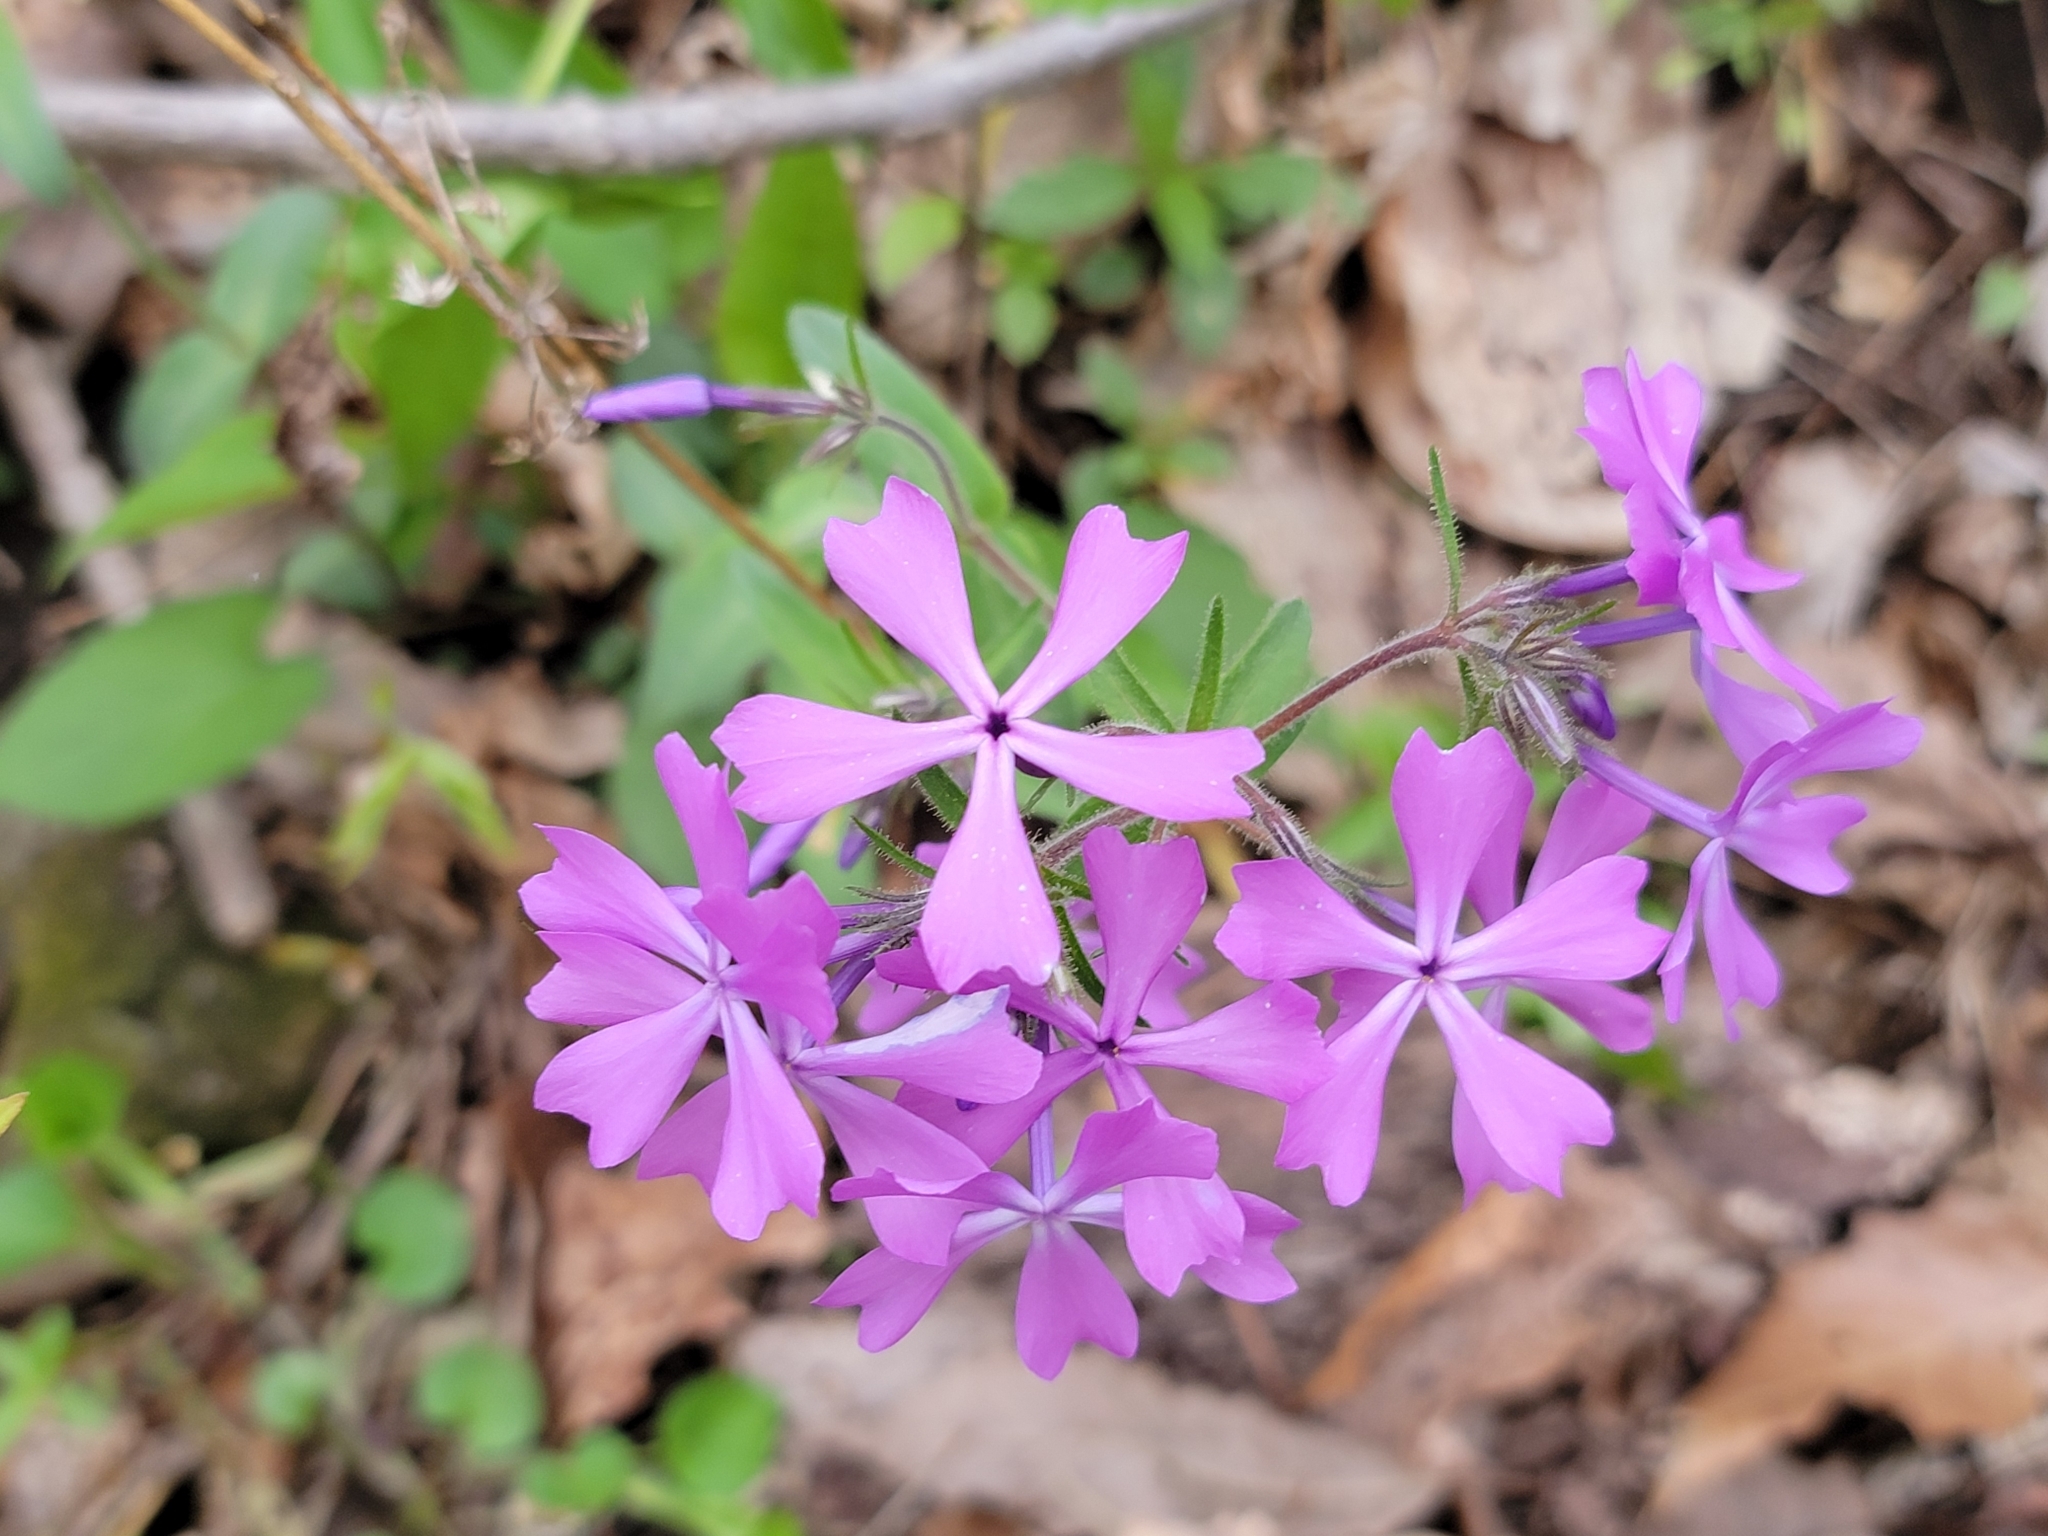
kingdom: Plantae
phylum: Tracheophyta
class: Magnoliopsida
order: Ericales
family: Polemoniaceae
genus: Phlox
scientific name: Phlox divaricata
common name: Blue phlox
